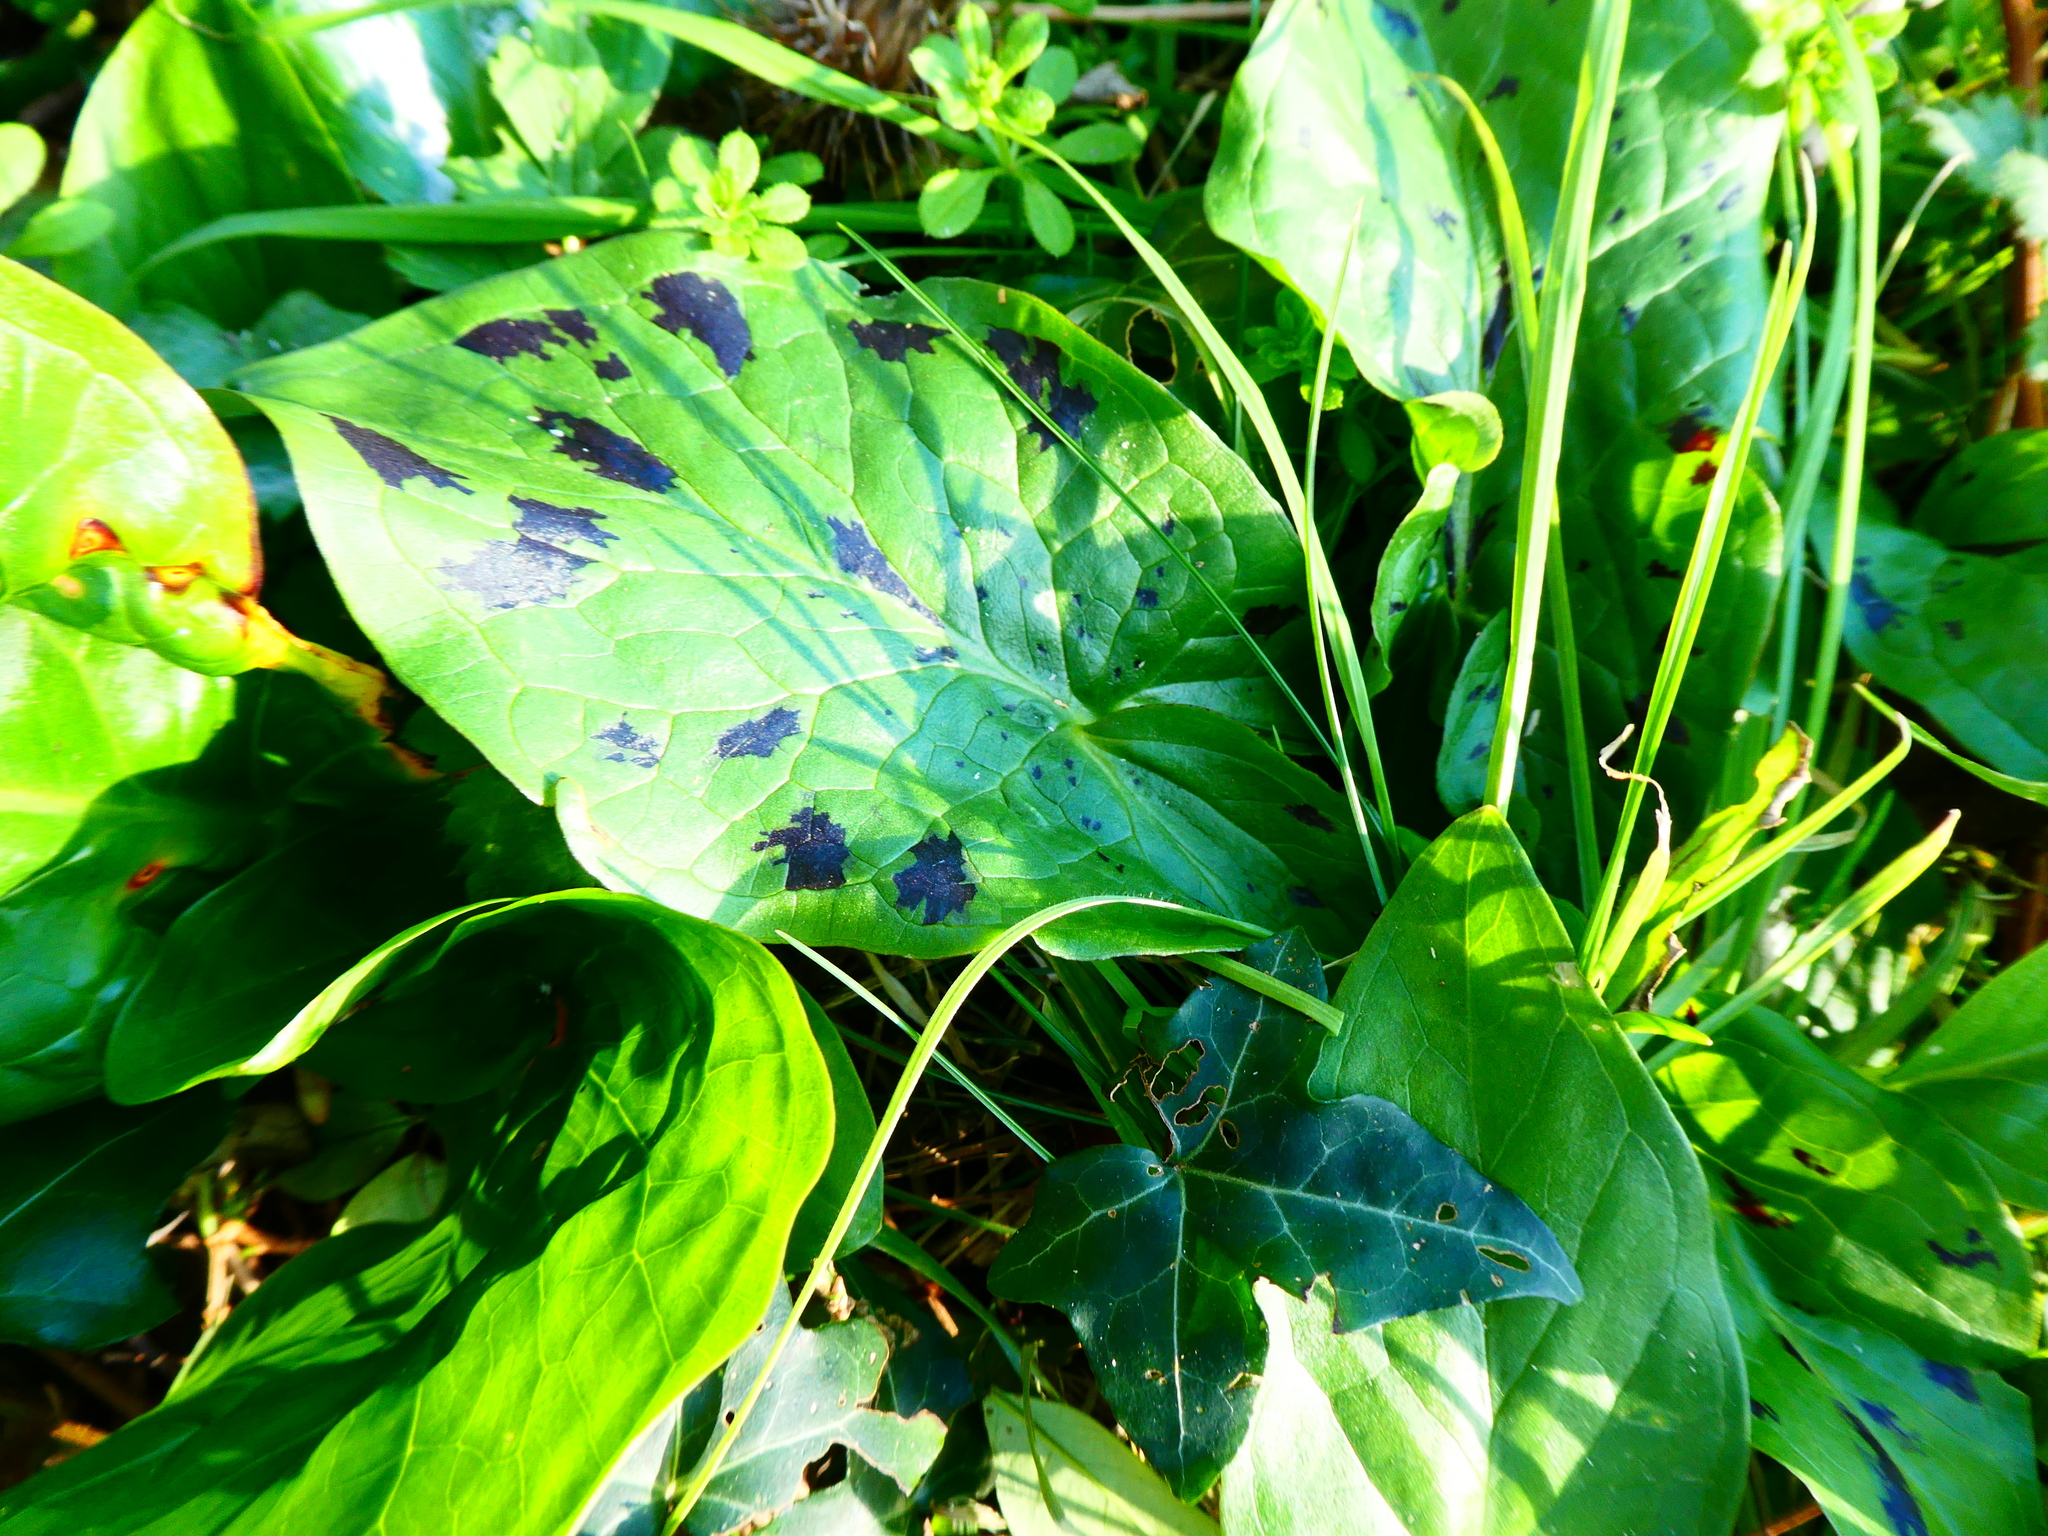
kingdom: Plantae
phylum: Tracheophyta
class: Liliopsida
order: Alismatales
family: Araceae
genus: Arum
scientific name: Arum maculatum
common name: Lords-and-ladies
